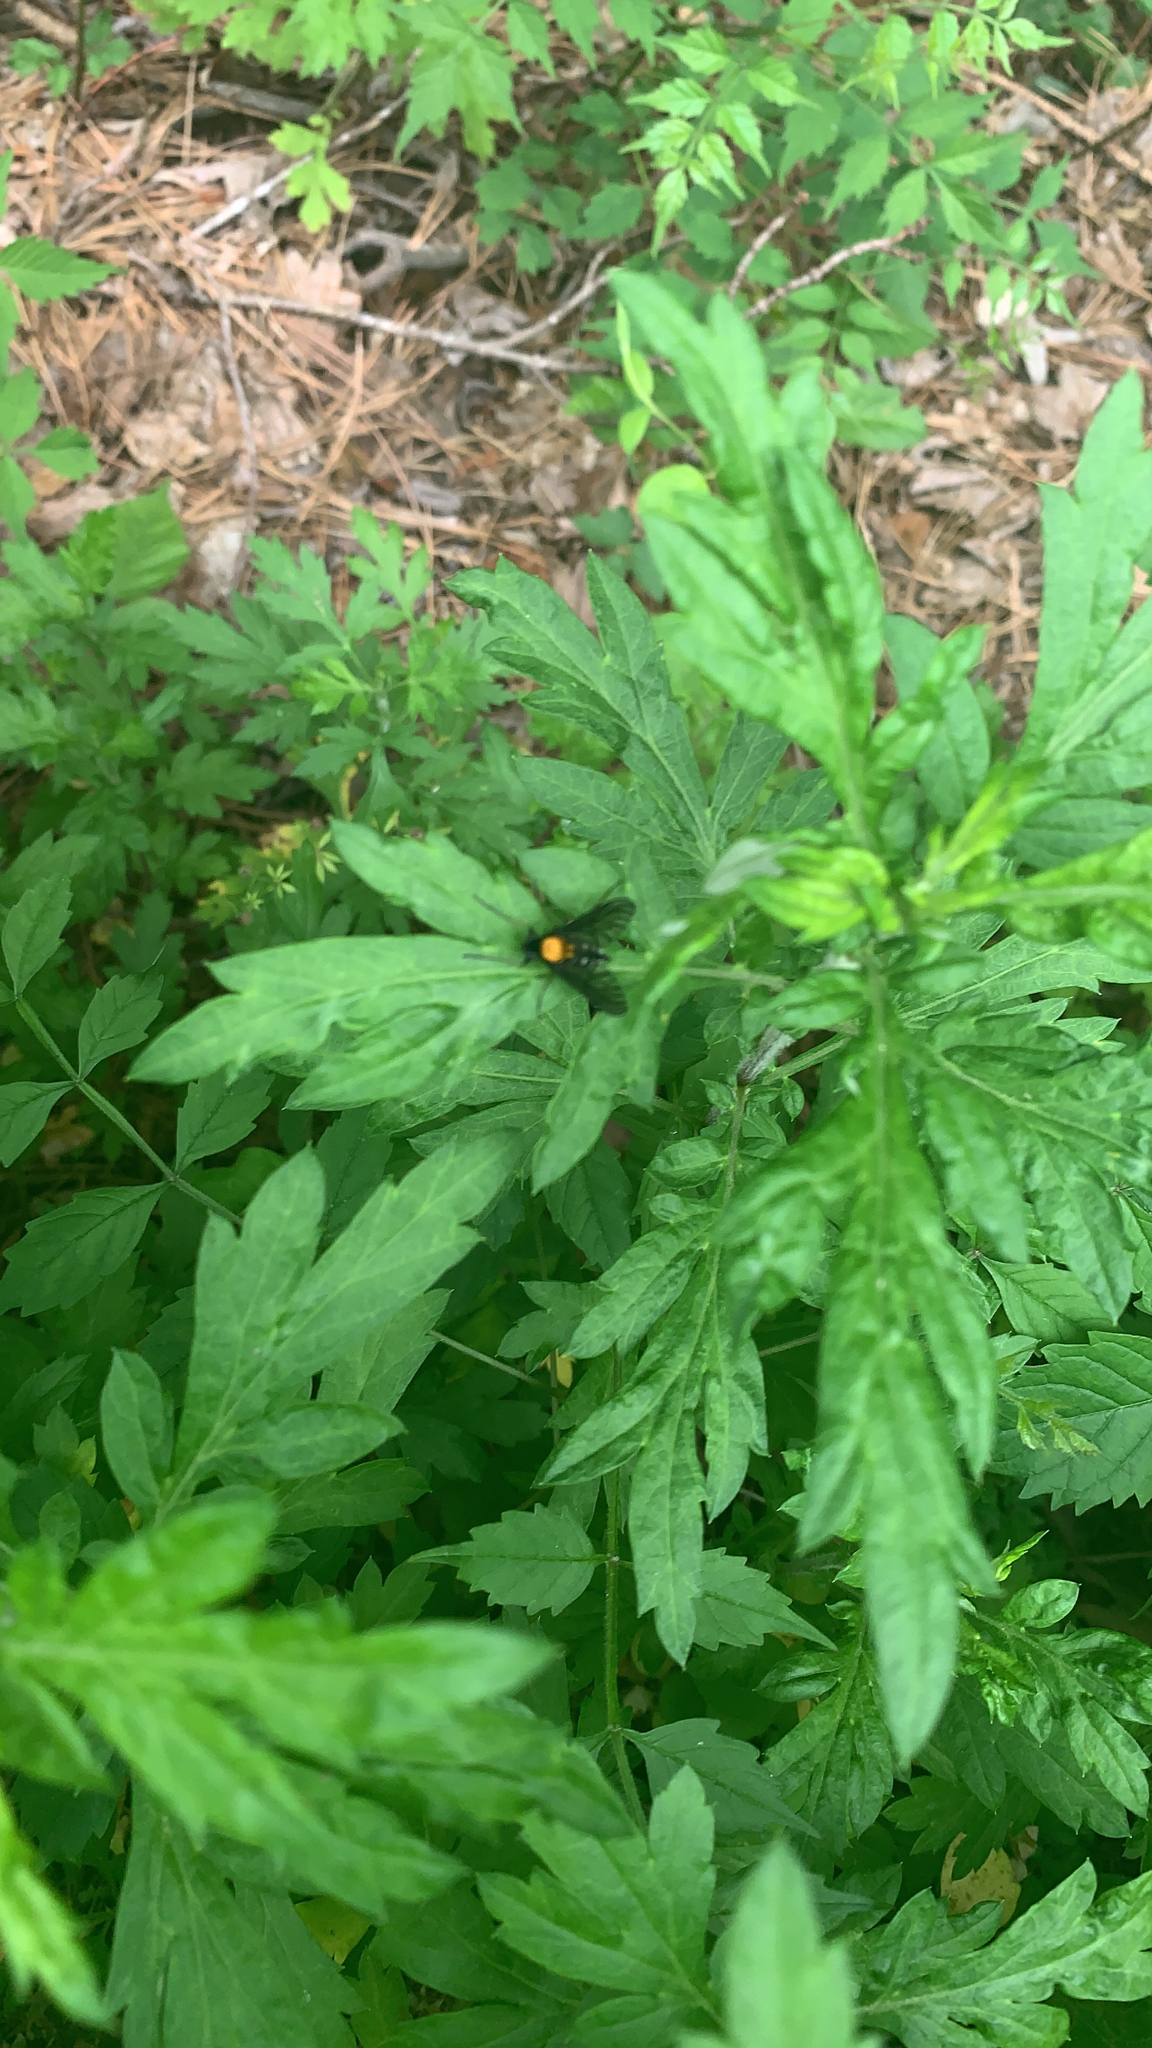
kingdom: Animalia
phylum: Arthropoda
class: Insecta
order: Diptera
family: Rhagionidae
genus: Chrysopilus
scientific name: Chrysopilus thoracicus
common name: Golden-backed snipe fly
